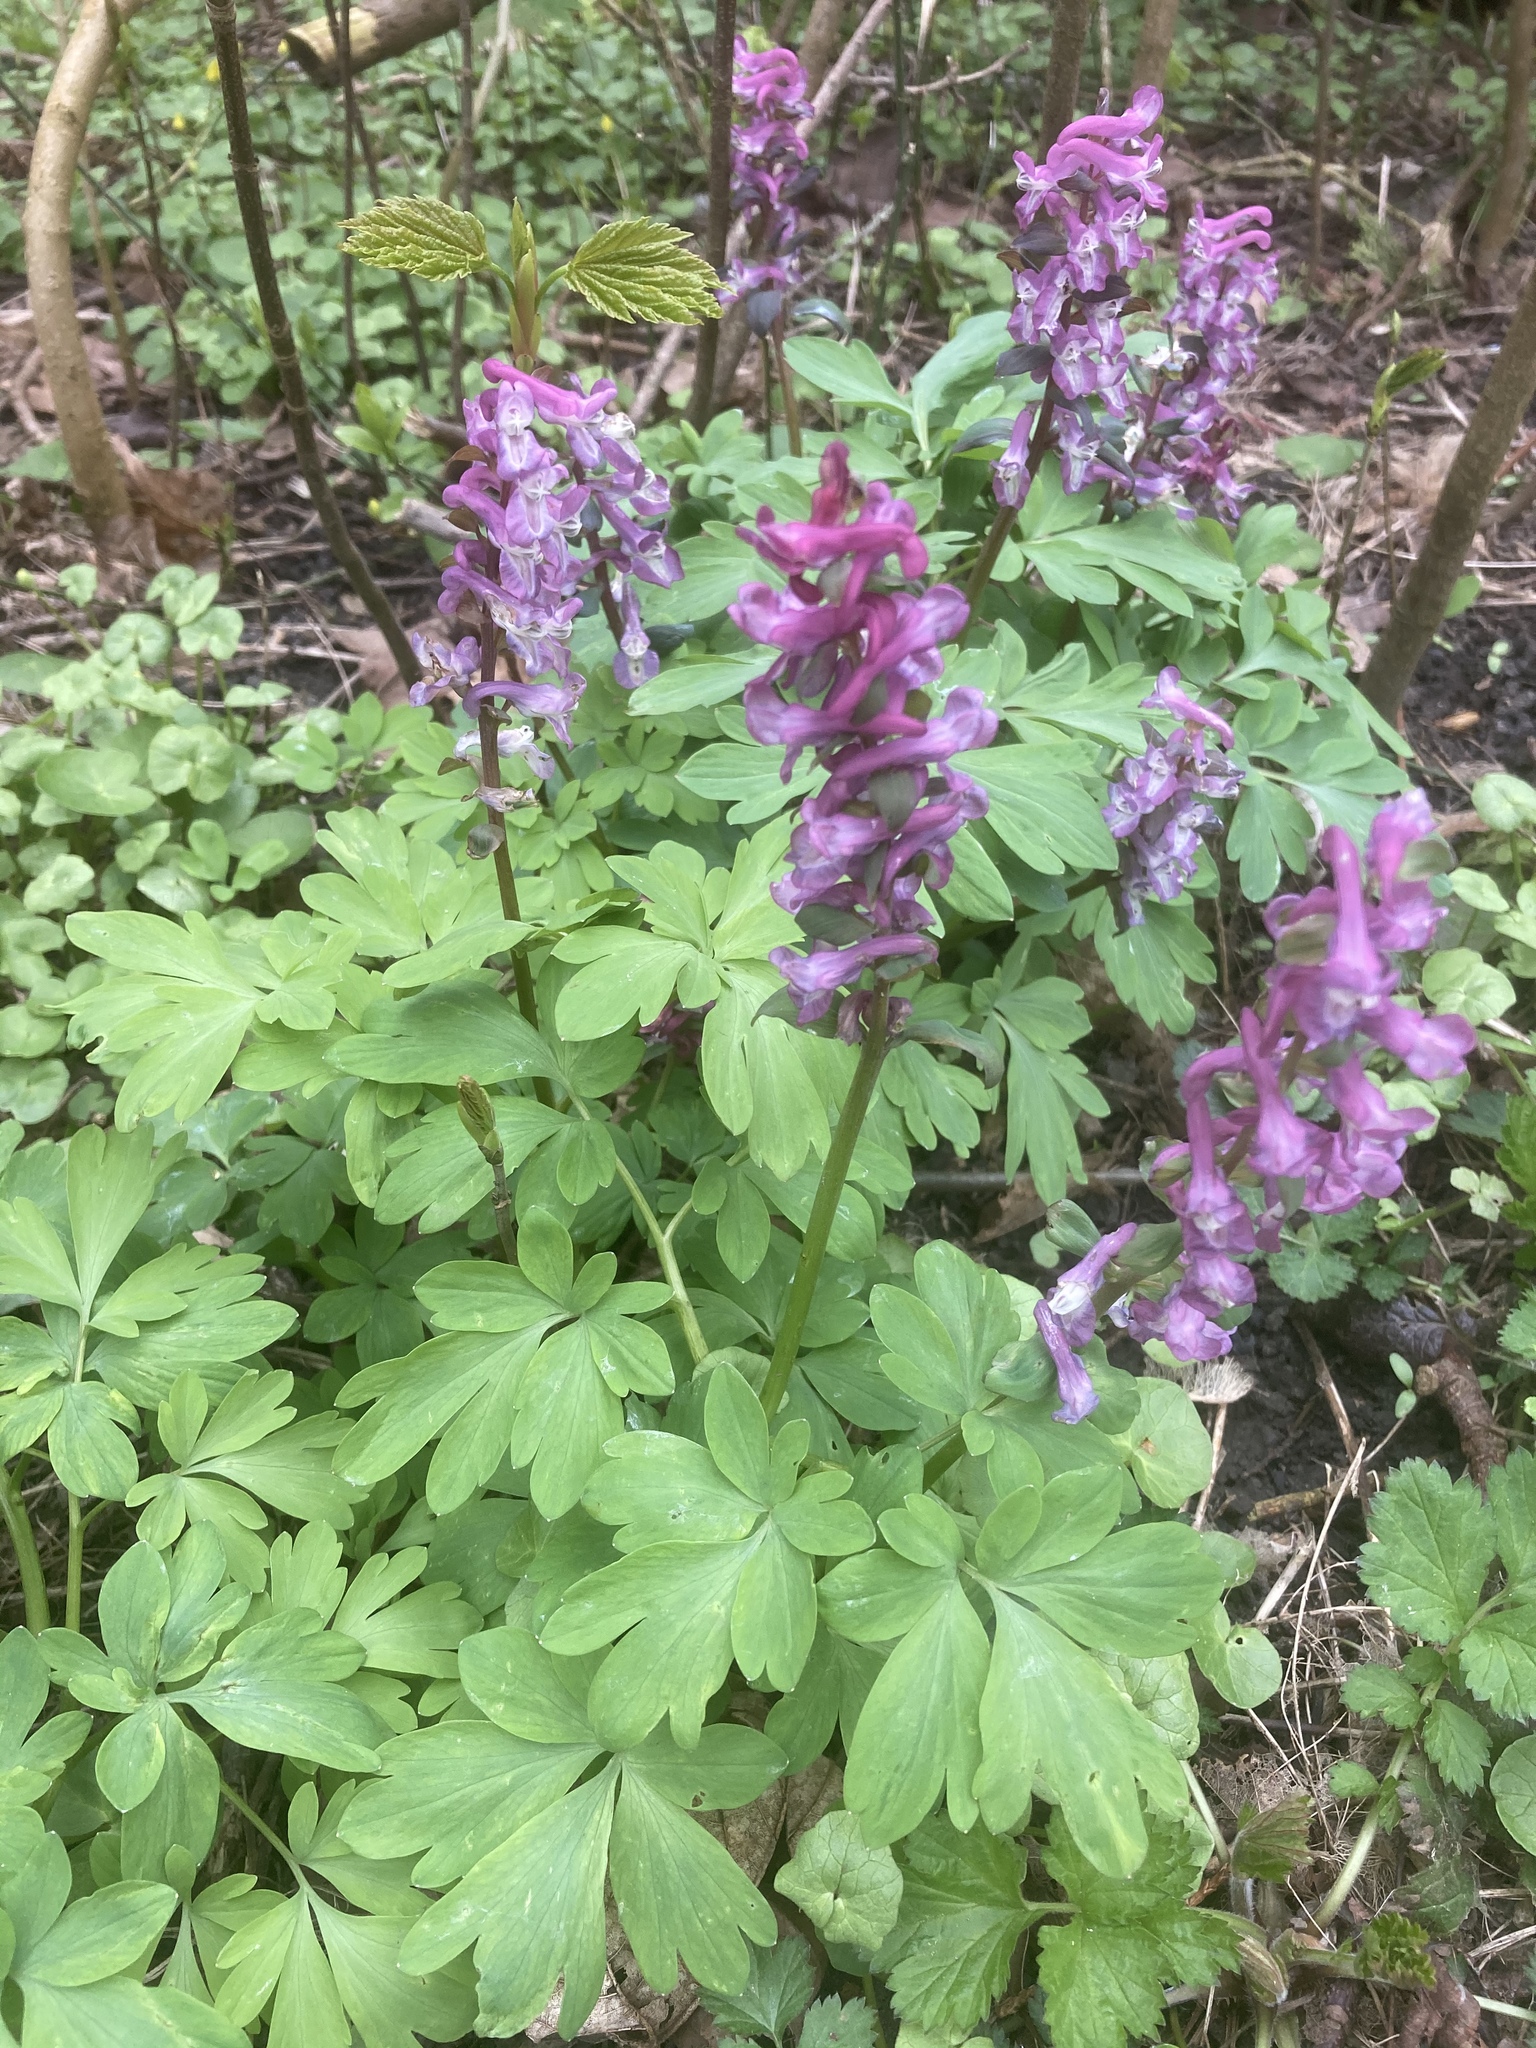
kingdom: Plantae
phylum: Tracheophyta
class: Magnoliopsida
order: Ranunculales
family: Papaveraceae
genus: Corydalis
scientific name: Corydalis cava
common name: Hollowroot
